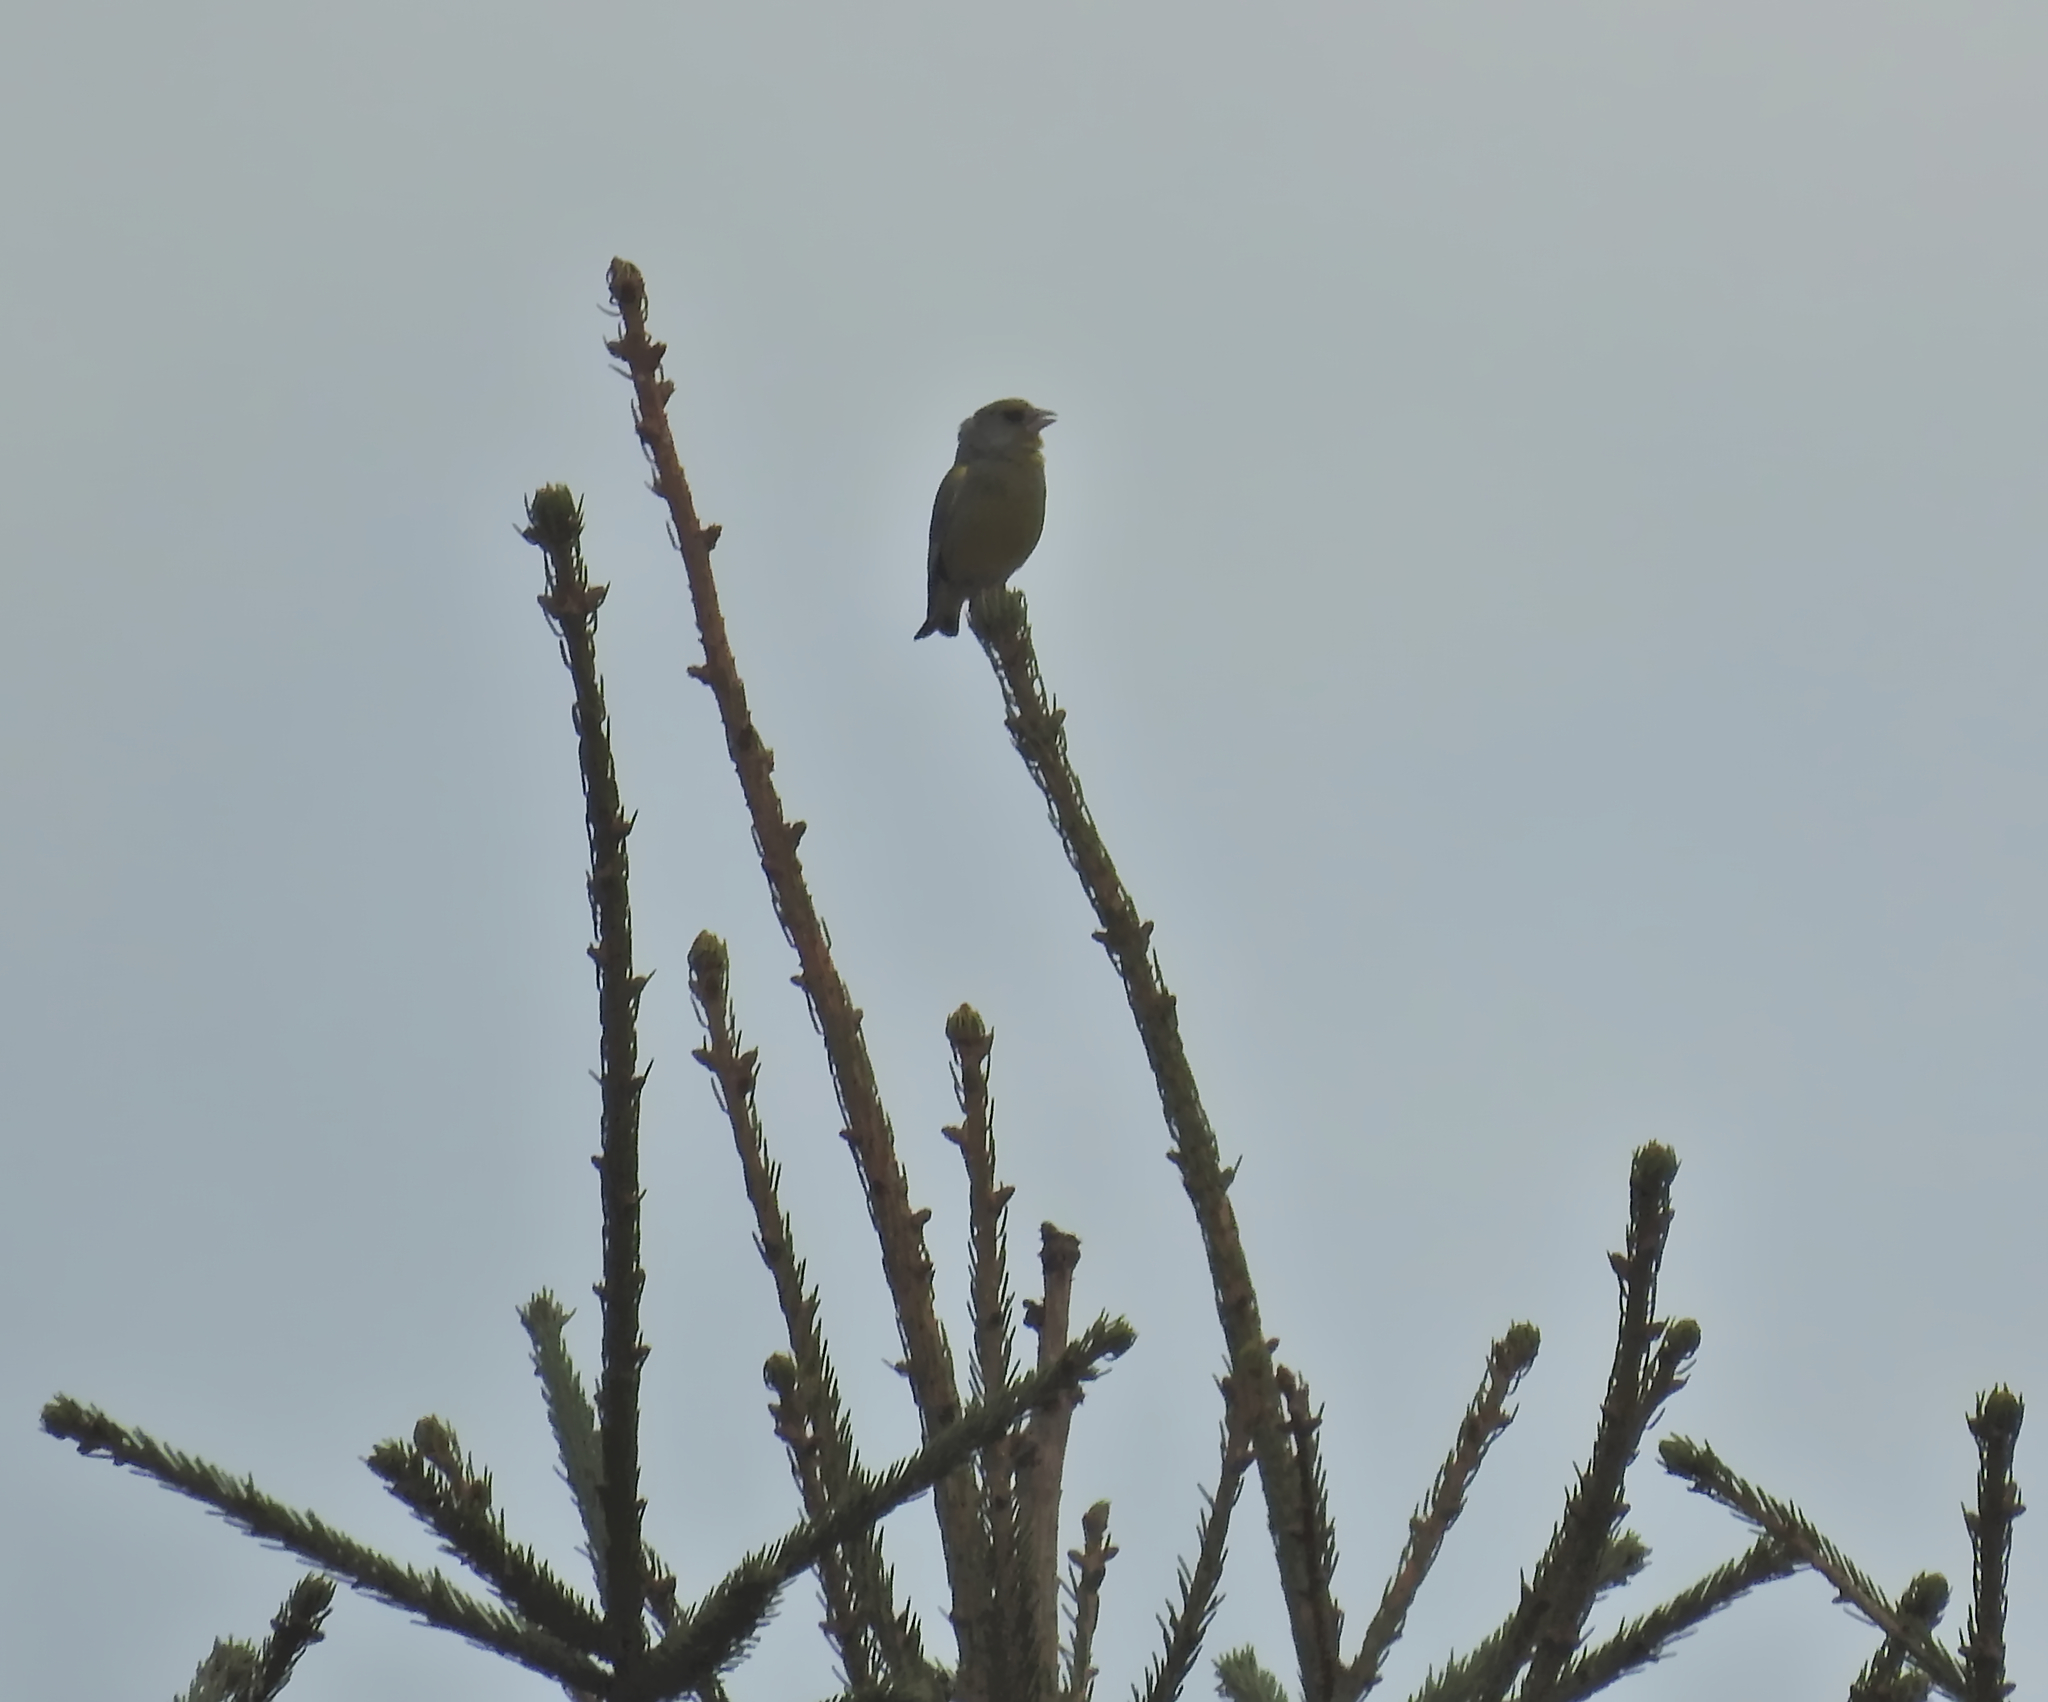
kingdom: Plantae
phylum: Tracheophyta
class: Liliopsida
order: Poales
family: Poaceae
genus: Chloris
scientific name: Chloris chloris
